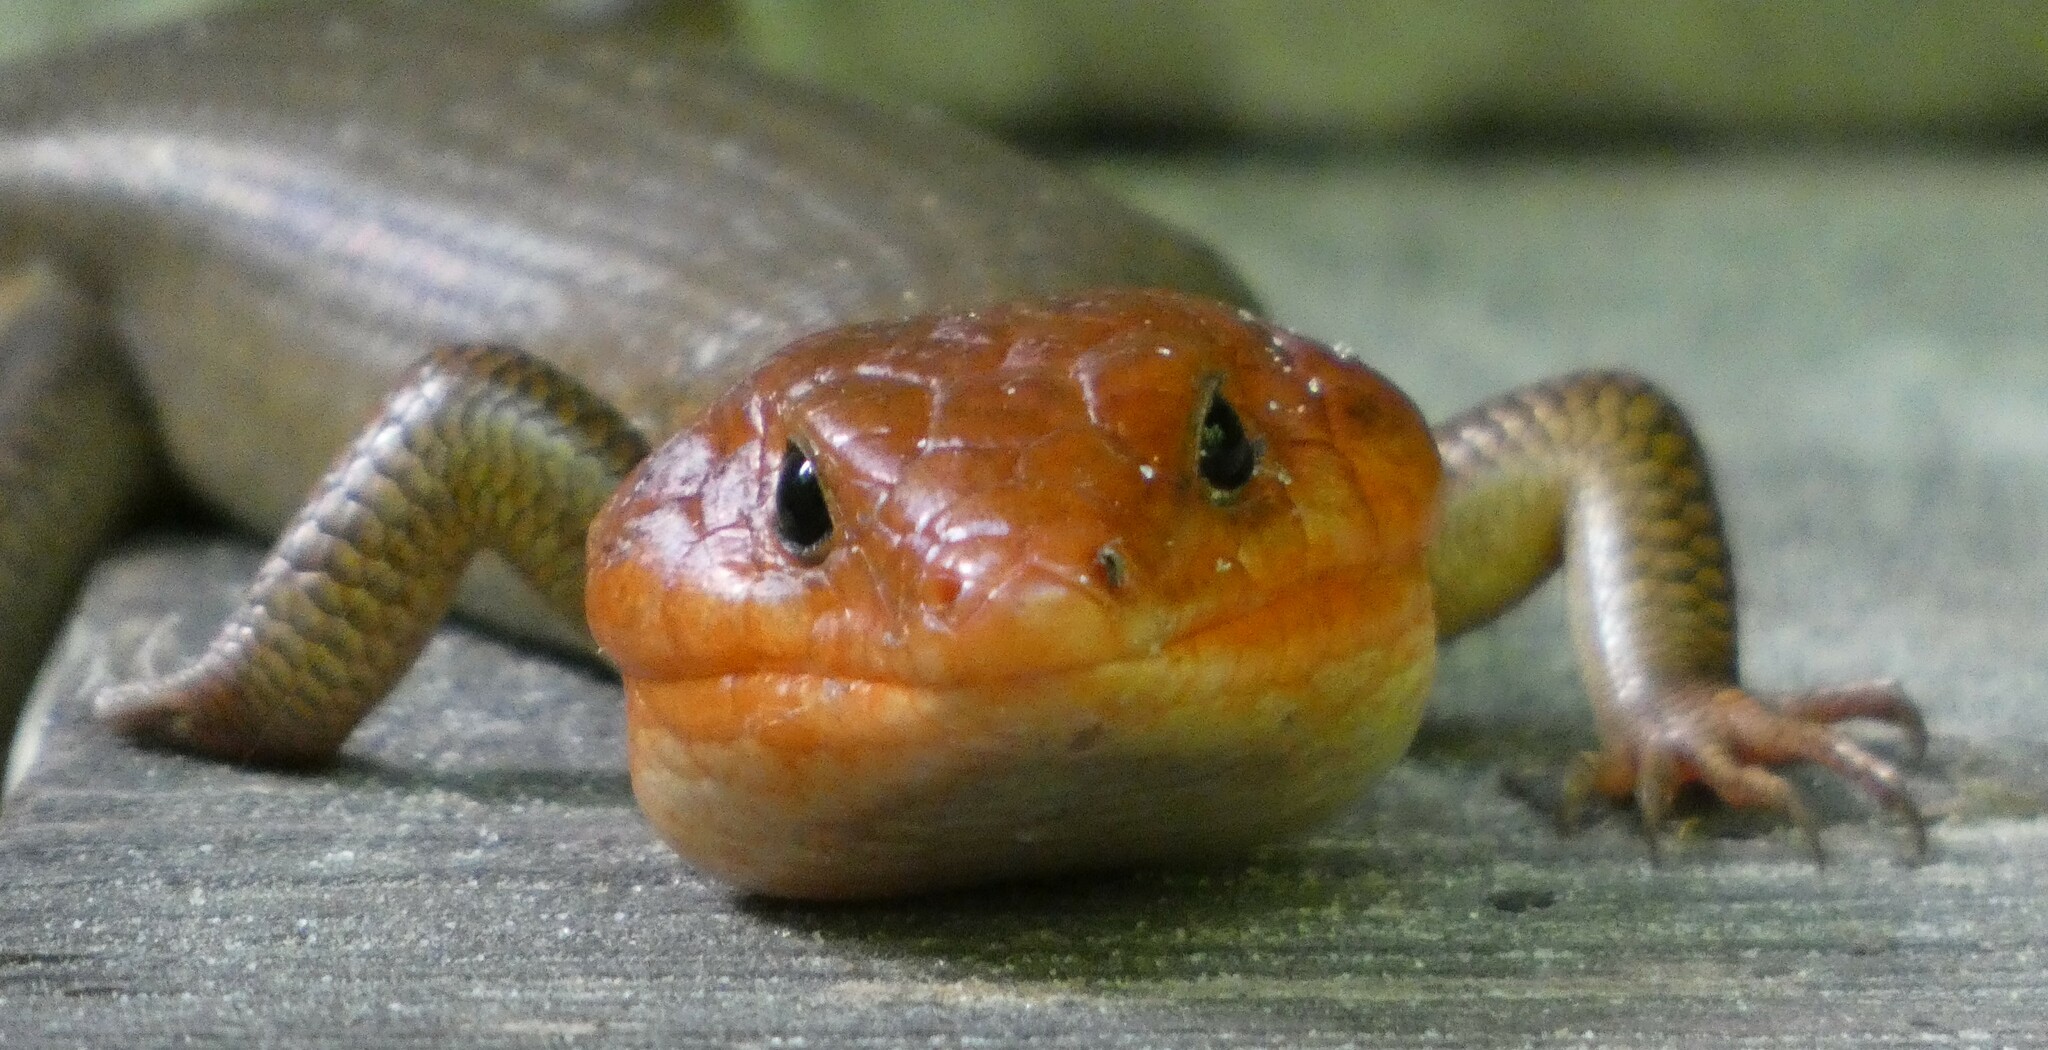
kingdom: Animalia
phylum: Chordata
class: Squamata
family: Scincidae
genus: Plestiodon
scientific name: Plestiodon laticeps
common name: Broadhead skink
